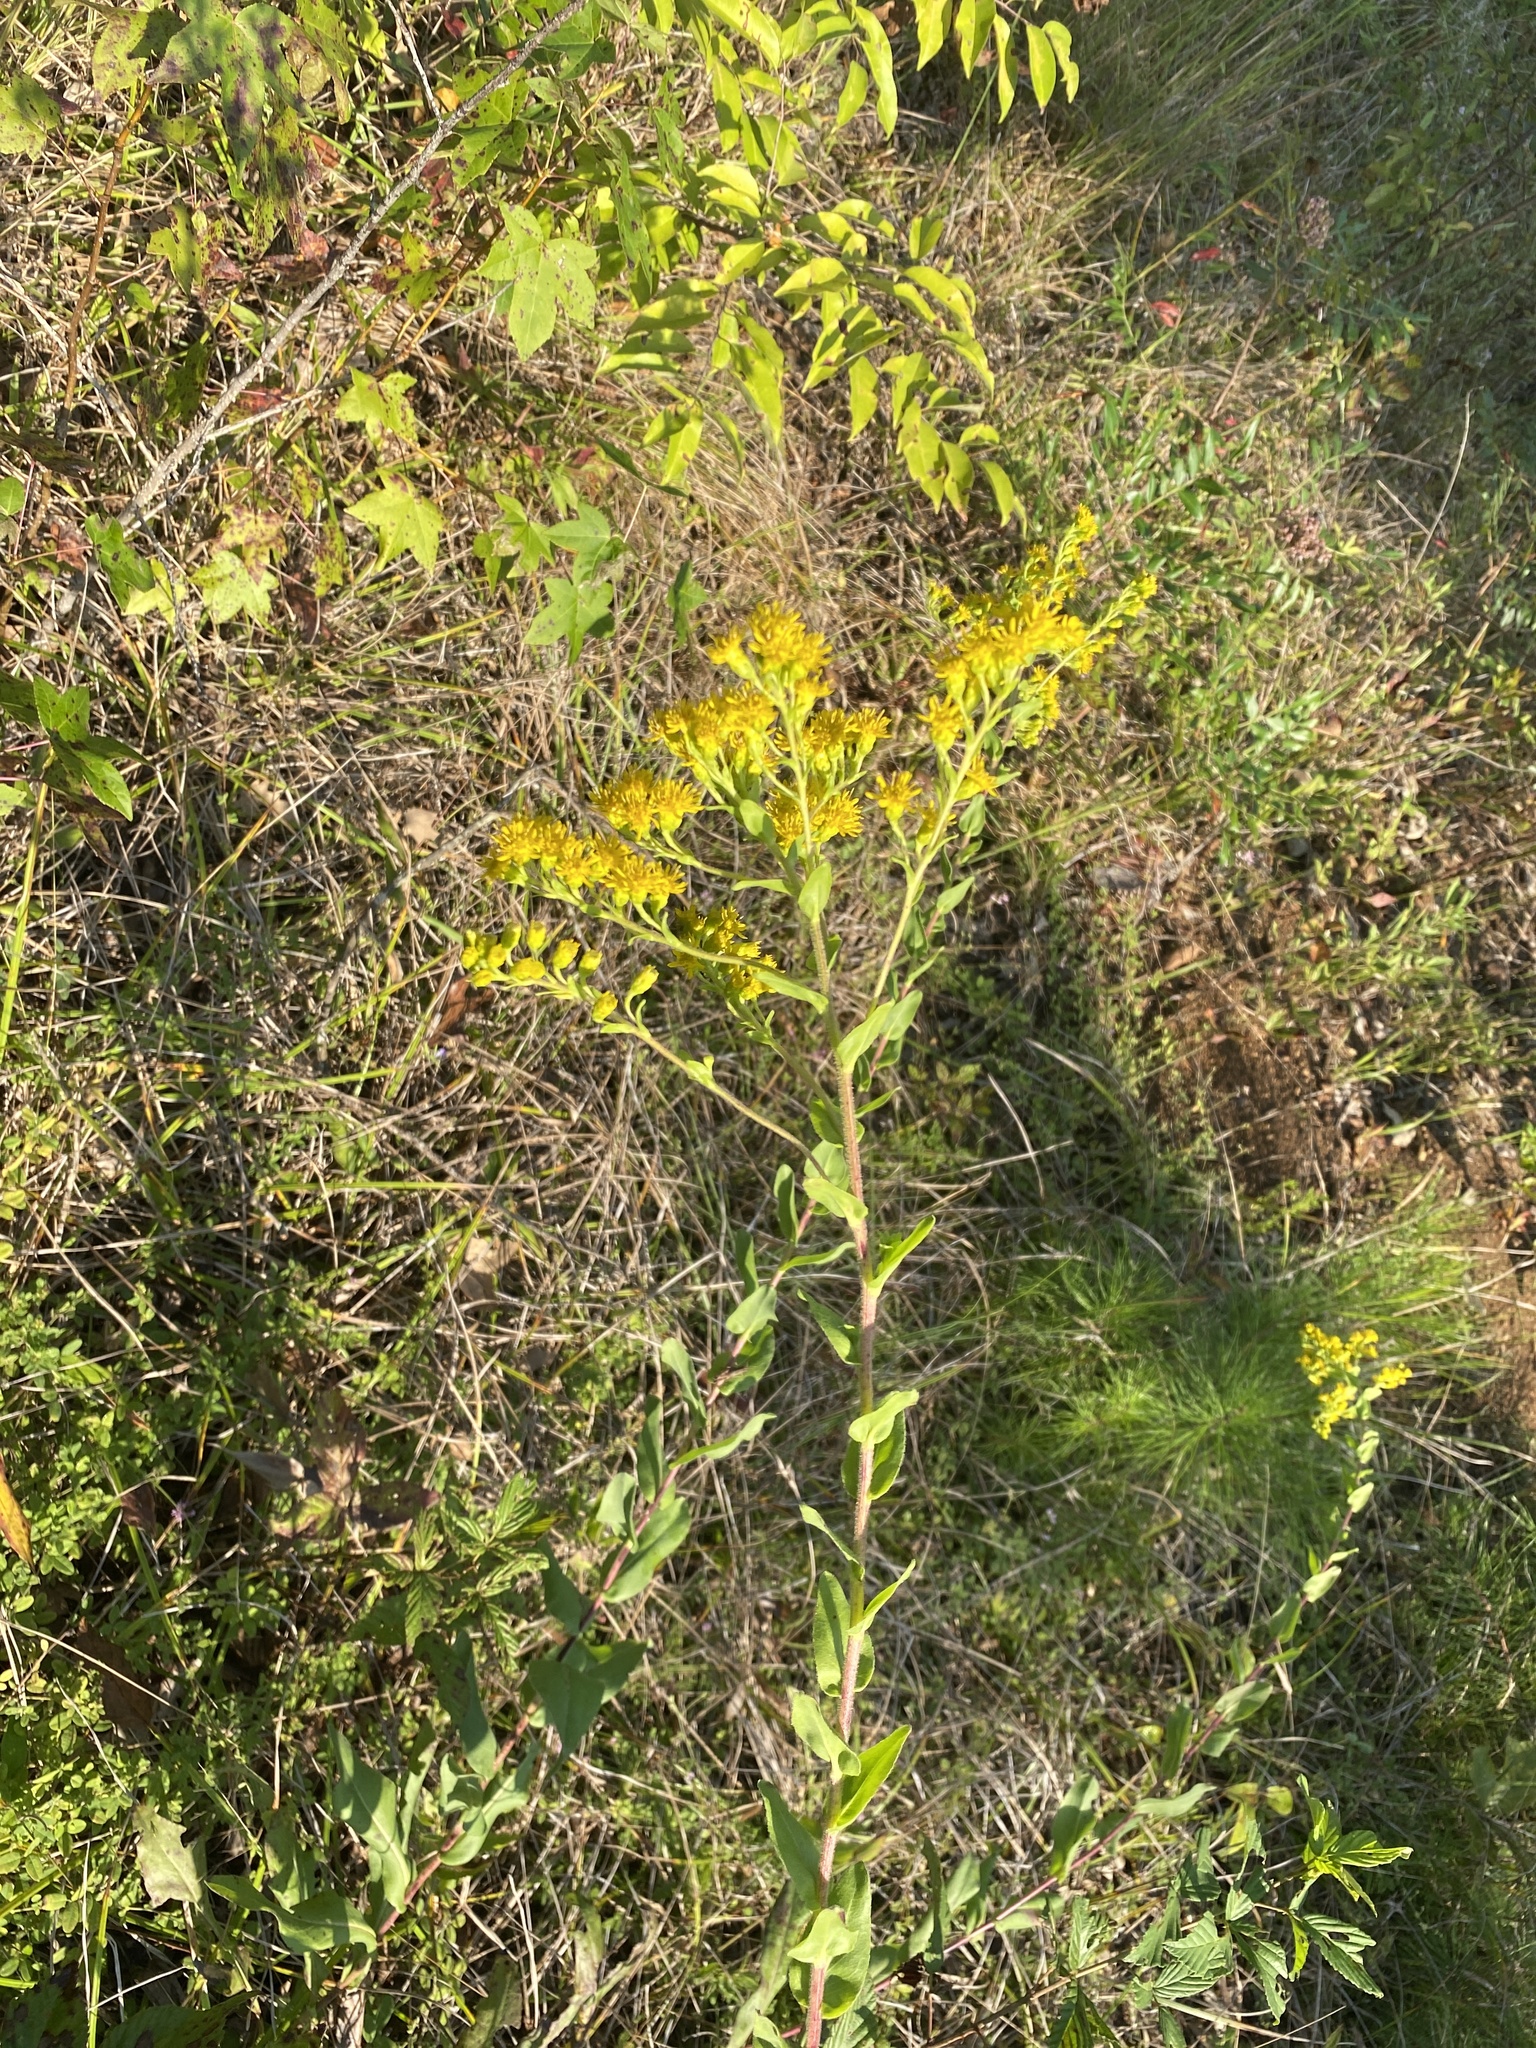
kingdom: Plantae
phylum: Tracheophyta
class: Magnoliopsida
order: Asterales
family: Asteraceae
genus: Solidago
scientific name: Solidago rigida
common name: Rigid goldenrod
